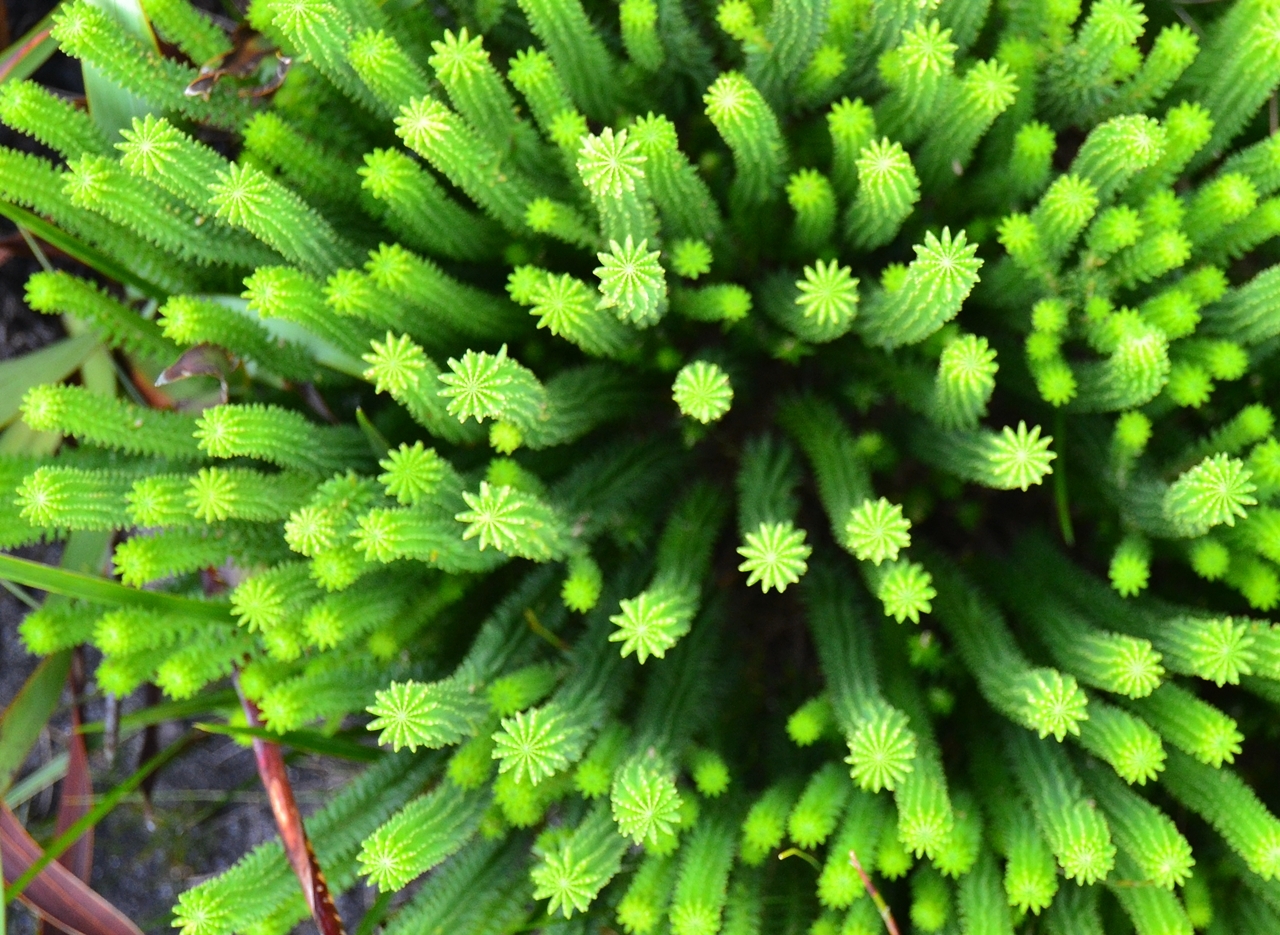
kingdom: Plantae
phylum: Tracheophyta
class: Magnoliopsida
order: Lamiales
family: Stilbaceae
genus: Kogelbergia
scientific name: Kogelbergia phylicoides
